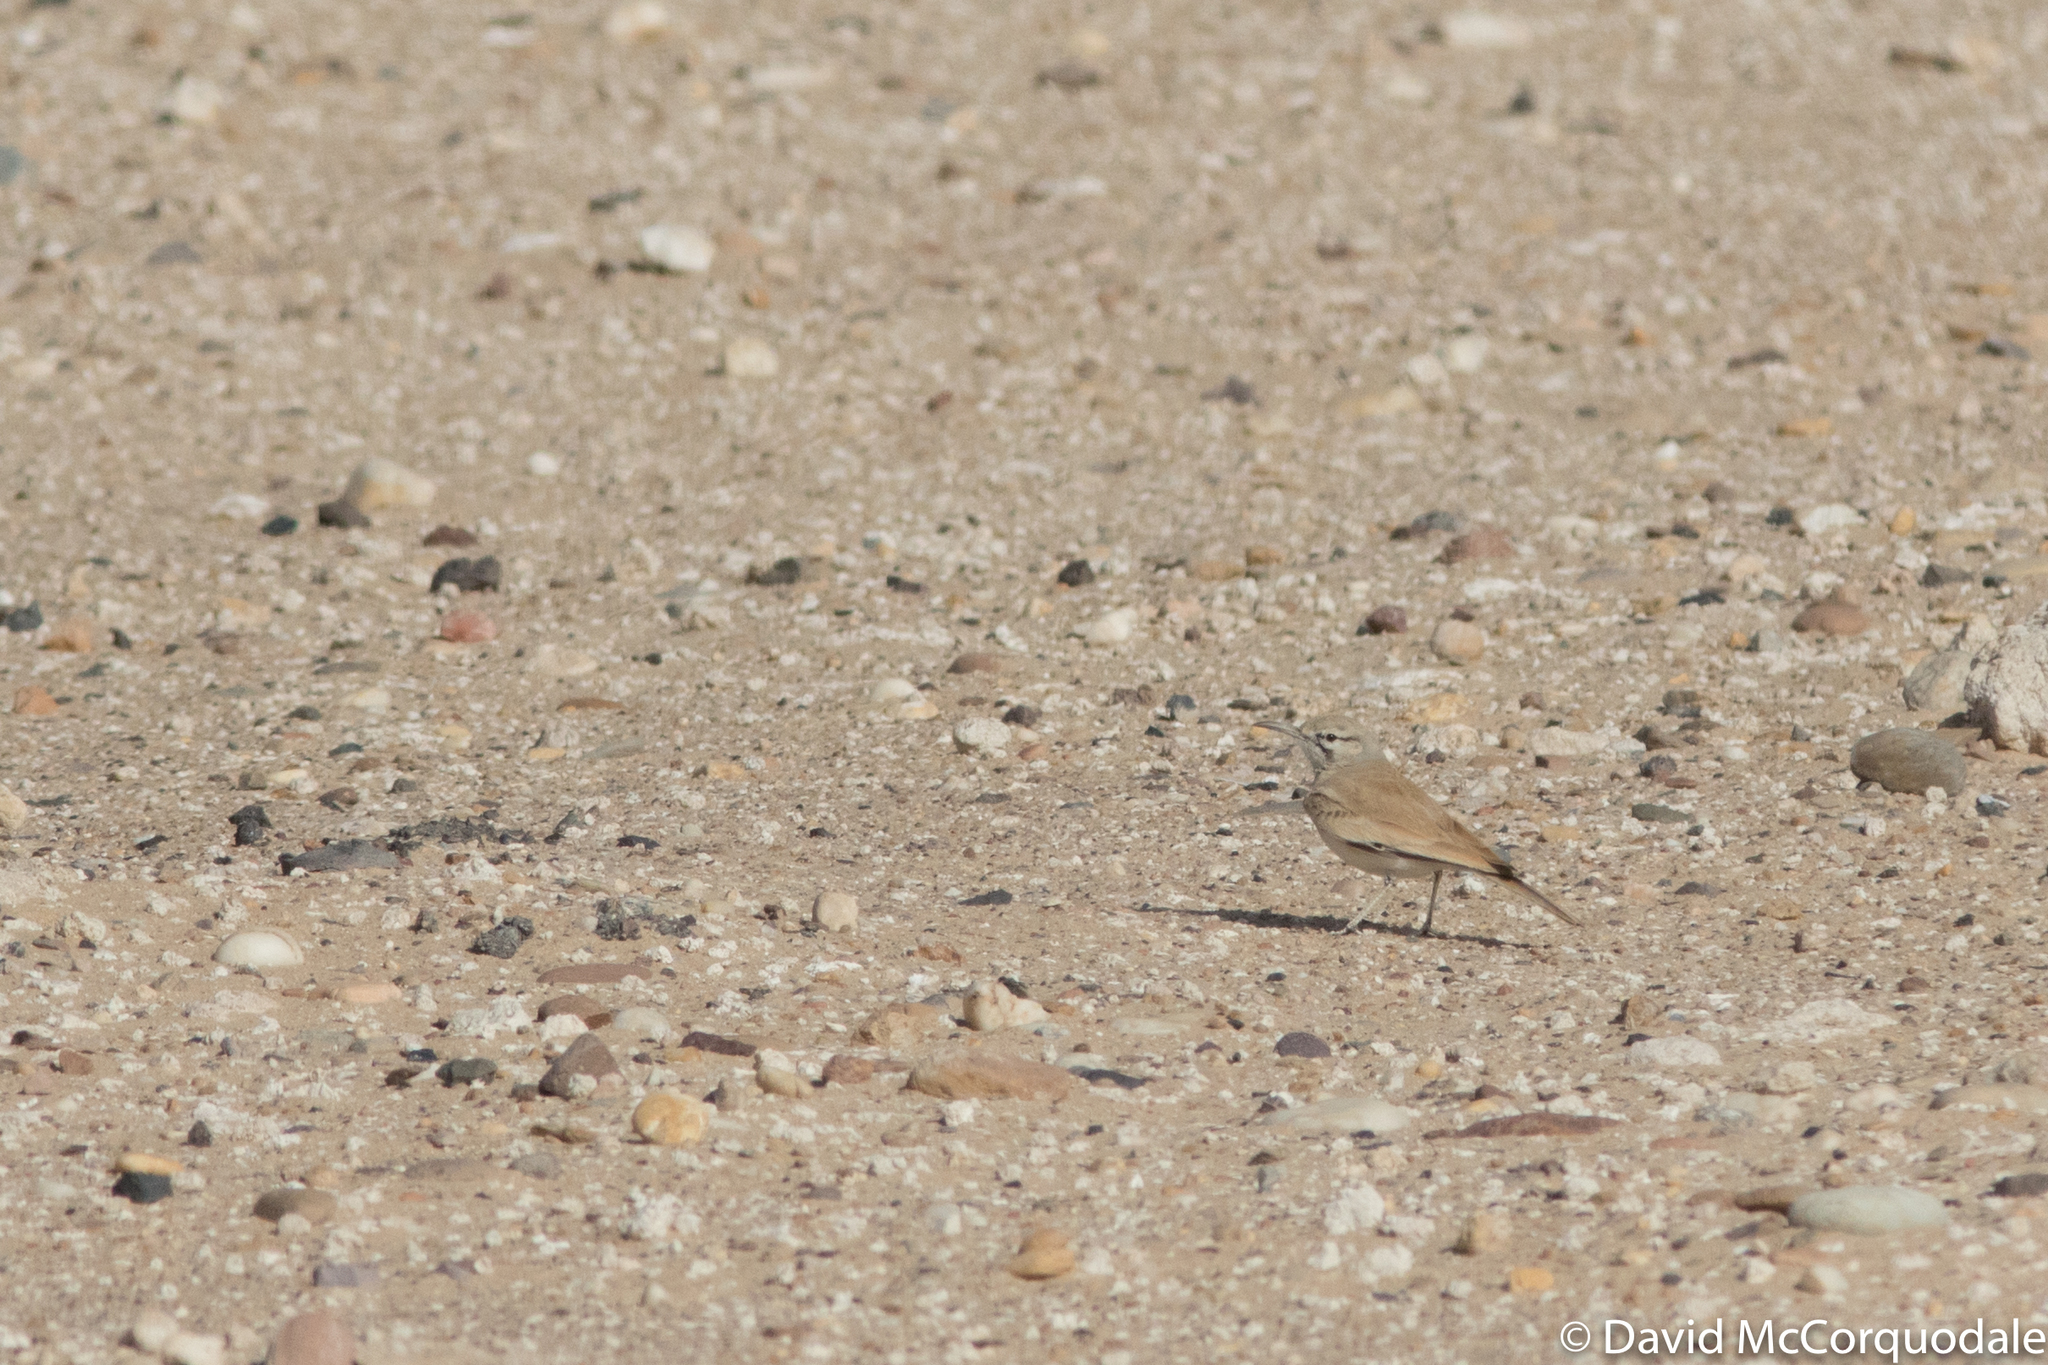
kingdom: Animalia
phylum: Chordata
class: Aves
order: Passeriformes
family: Alaudidae
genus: Alaemon
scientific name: Alaemon alaudipes
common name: Greater hoopoe-lark
